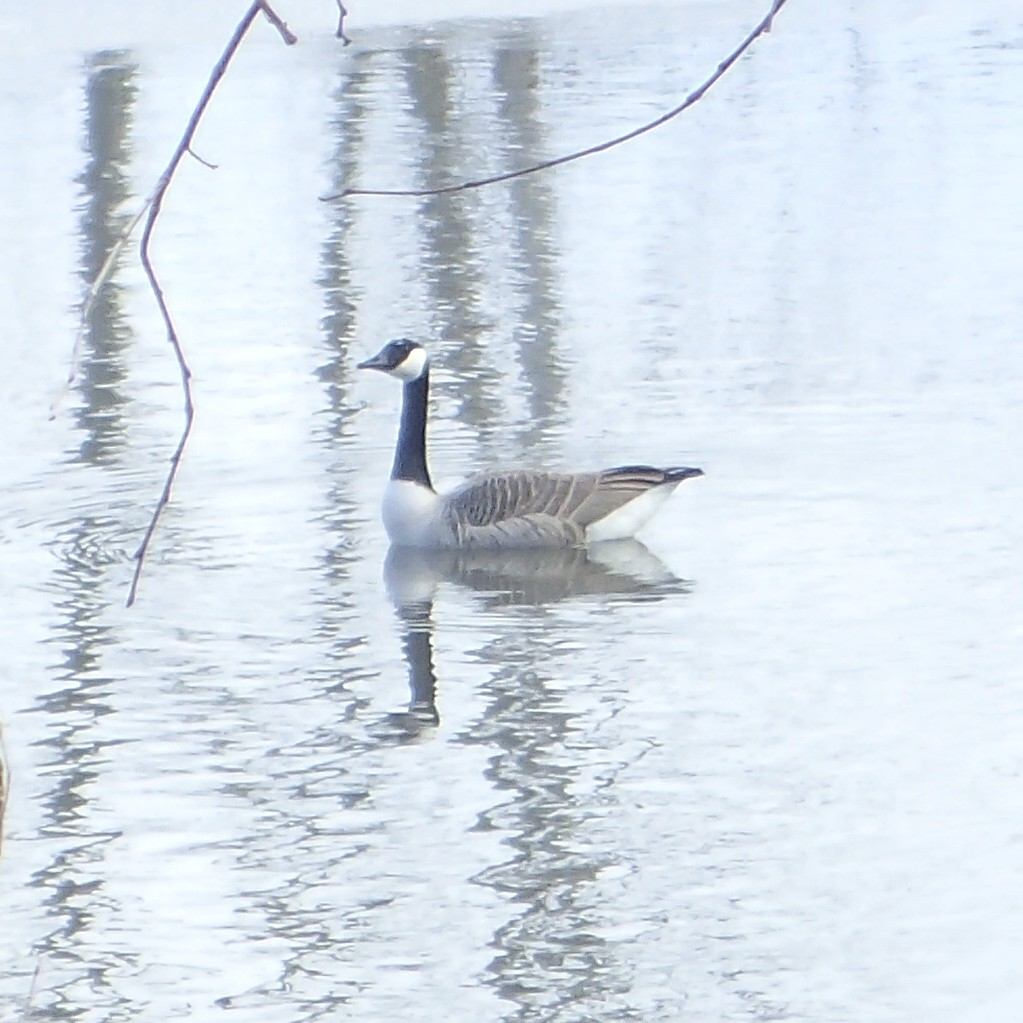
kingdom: Animalia
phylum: Chordata
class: Aves
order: Anseriformes
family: Anatidae
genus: Branta
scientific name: Branta canadensis
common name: Canada goose
